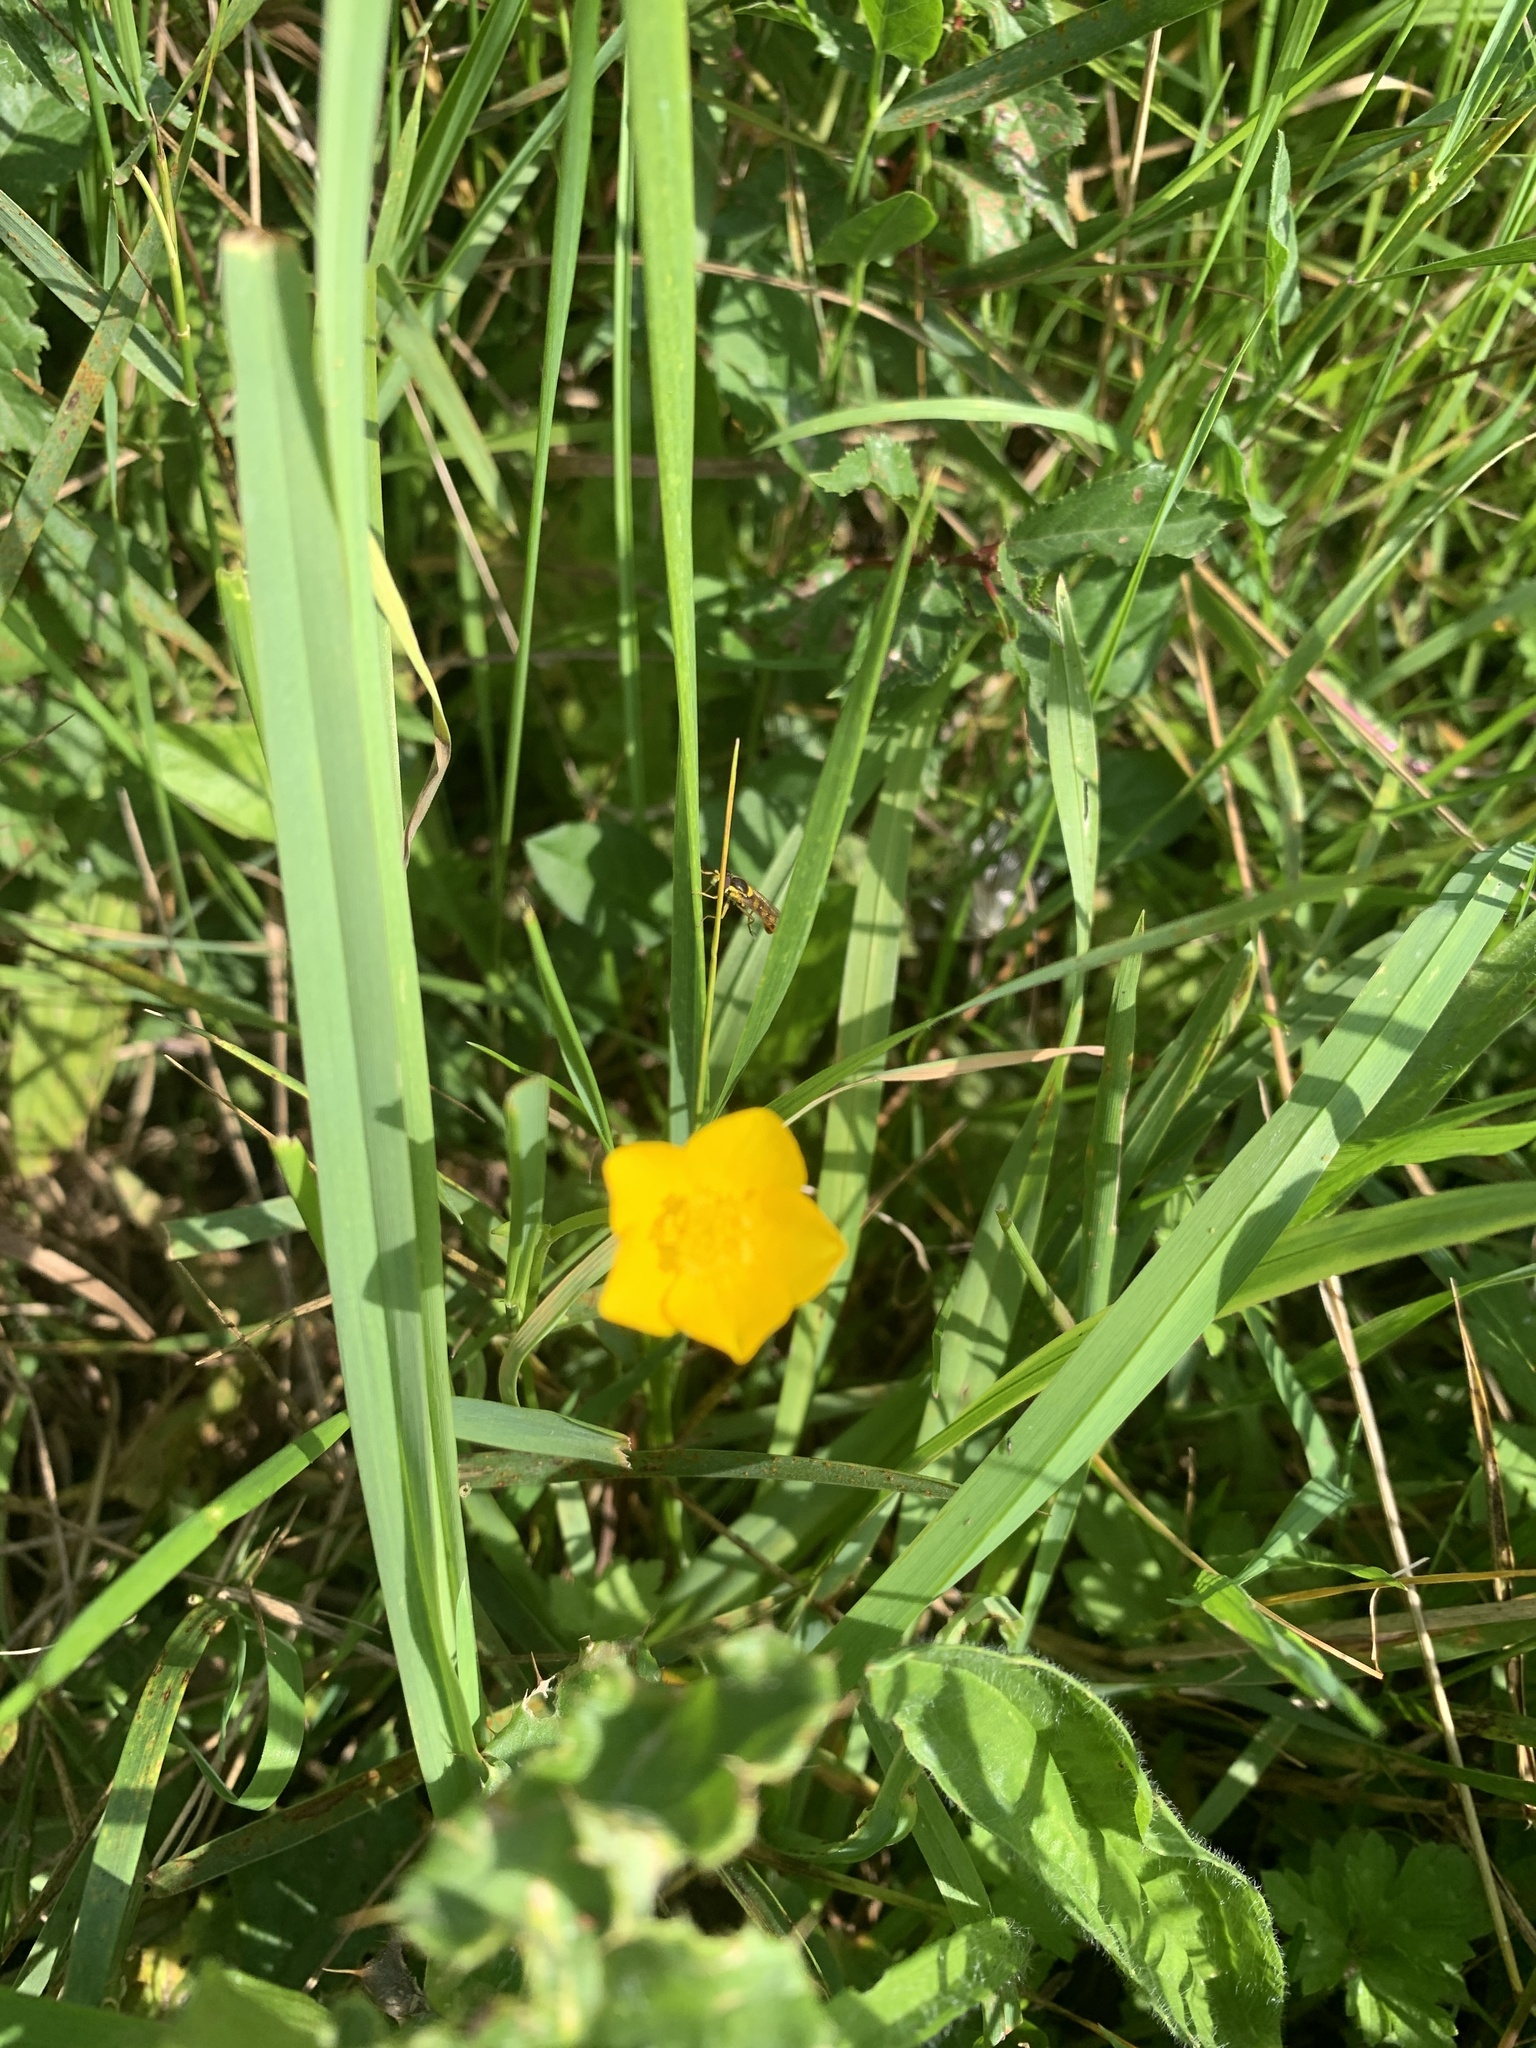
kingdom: Plantae
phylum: Tracheophyta
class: Magnoliopsida
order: Ranunculales
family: Ranunculaceae
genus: Ranunculus
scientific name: Ranunculus acris
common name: Meadow buttercup
